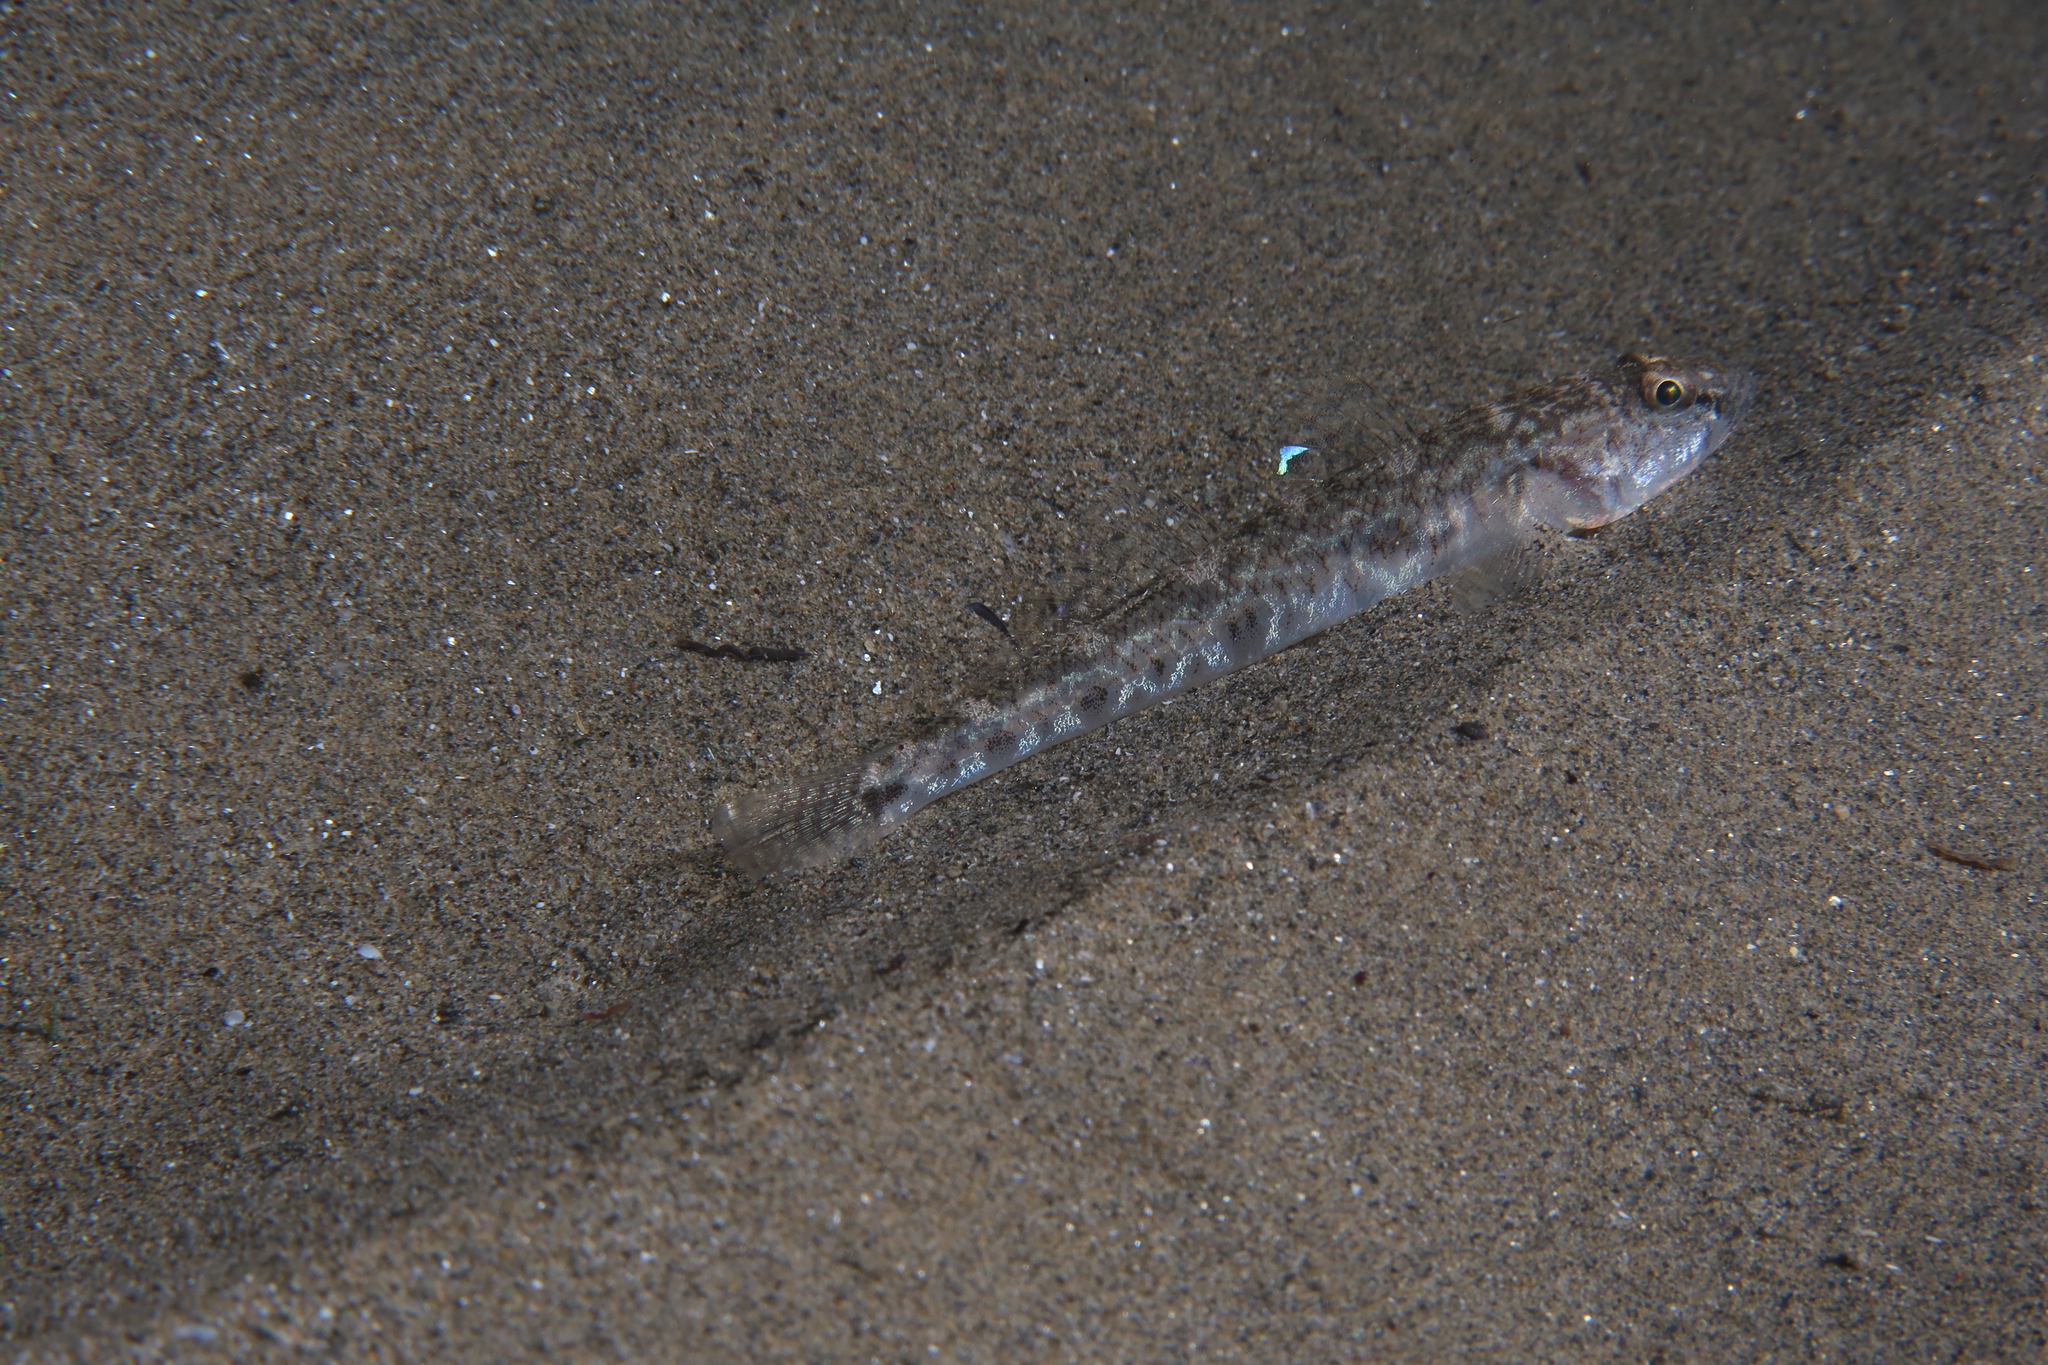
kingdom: Animalia
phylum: Chordata
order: Perciformes
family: Gobiidae
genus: Pomatoschistus
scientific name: Pomatoschistus minutus
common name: Sand goby
